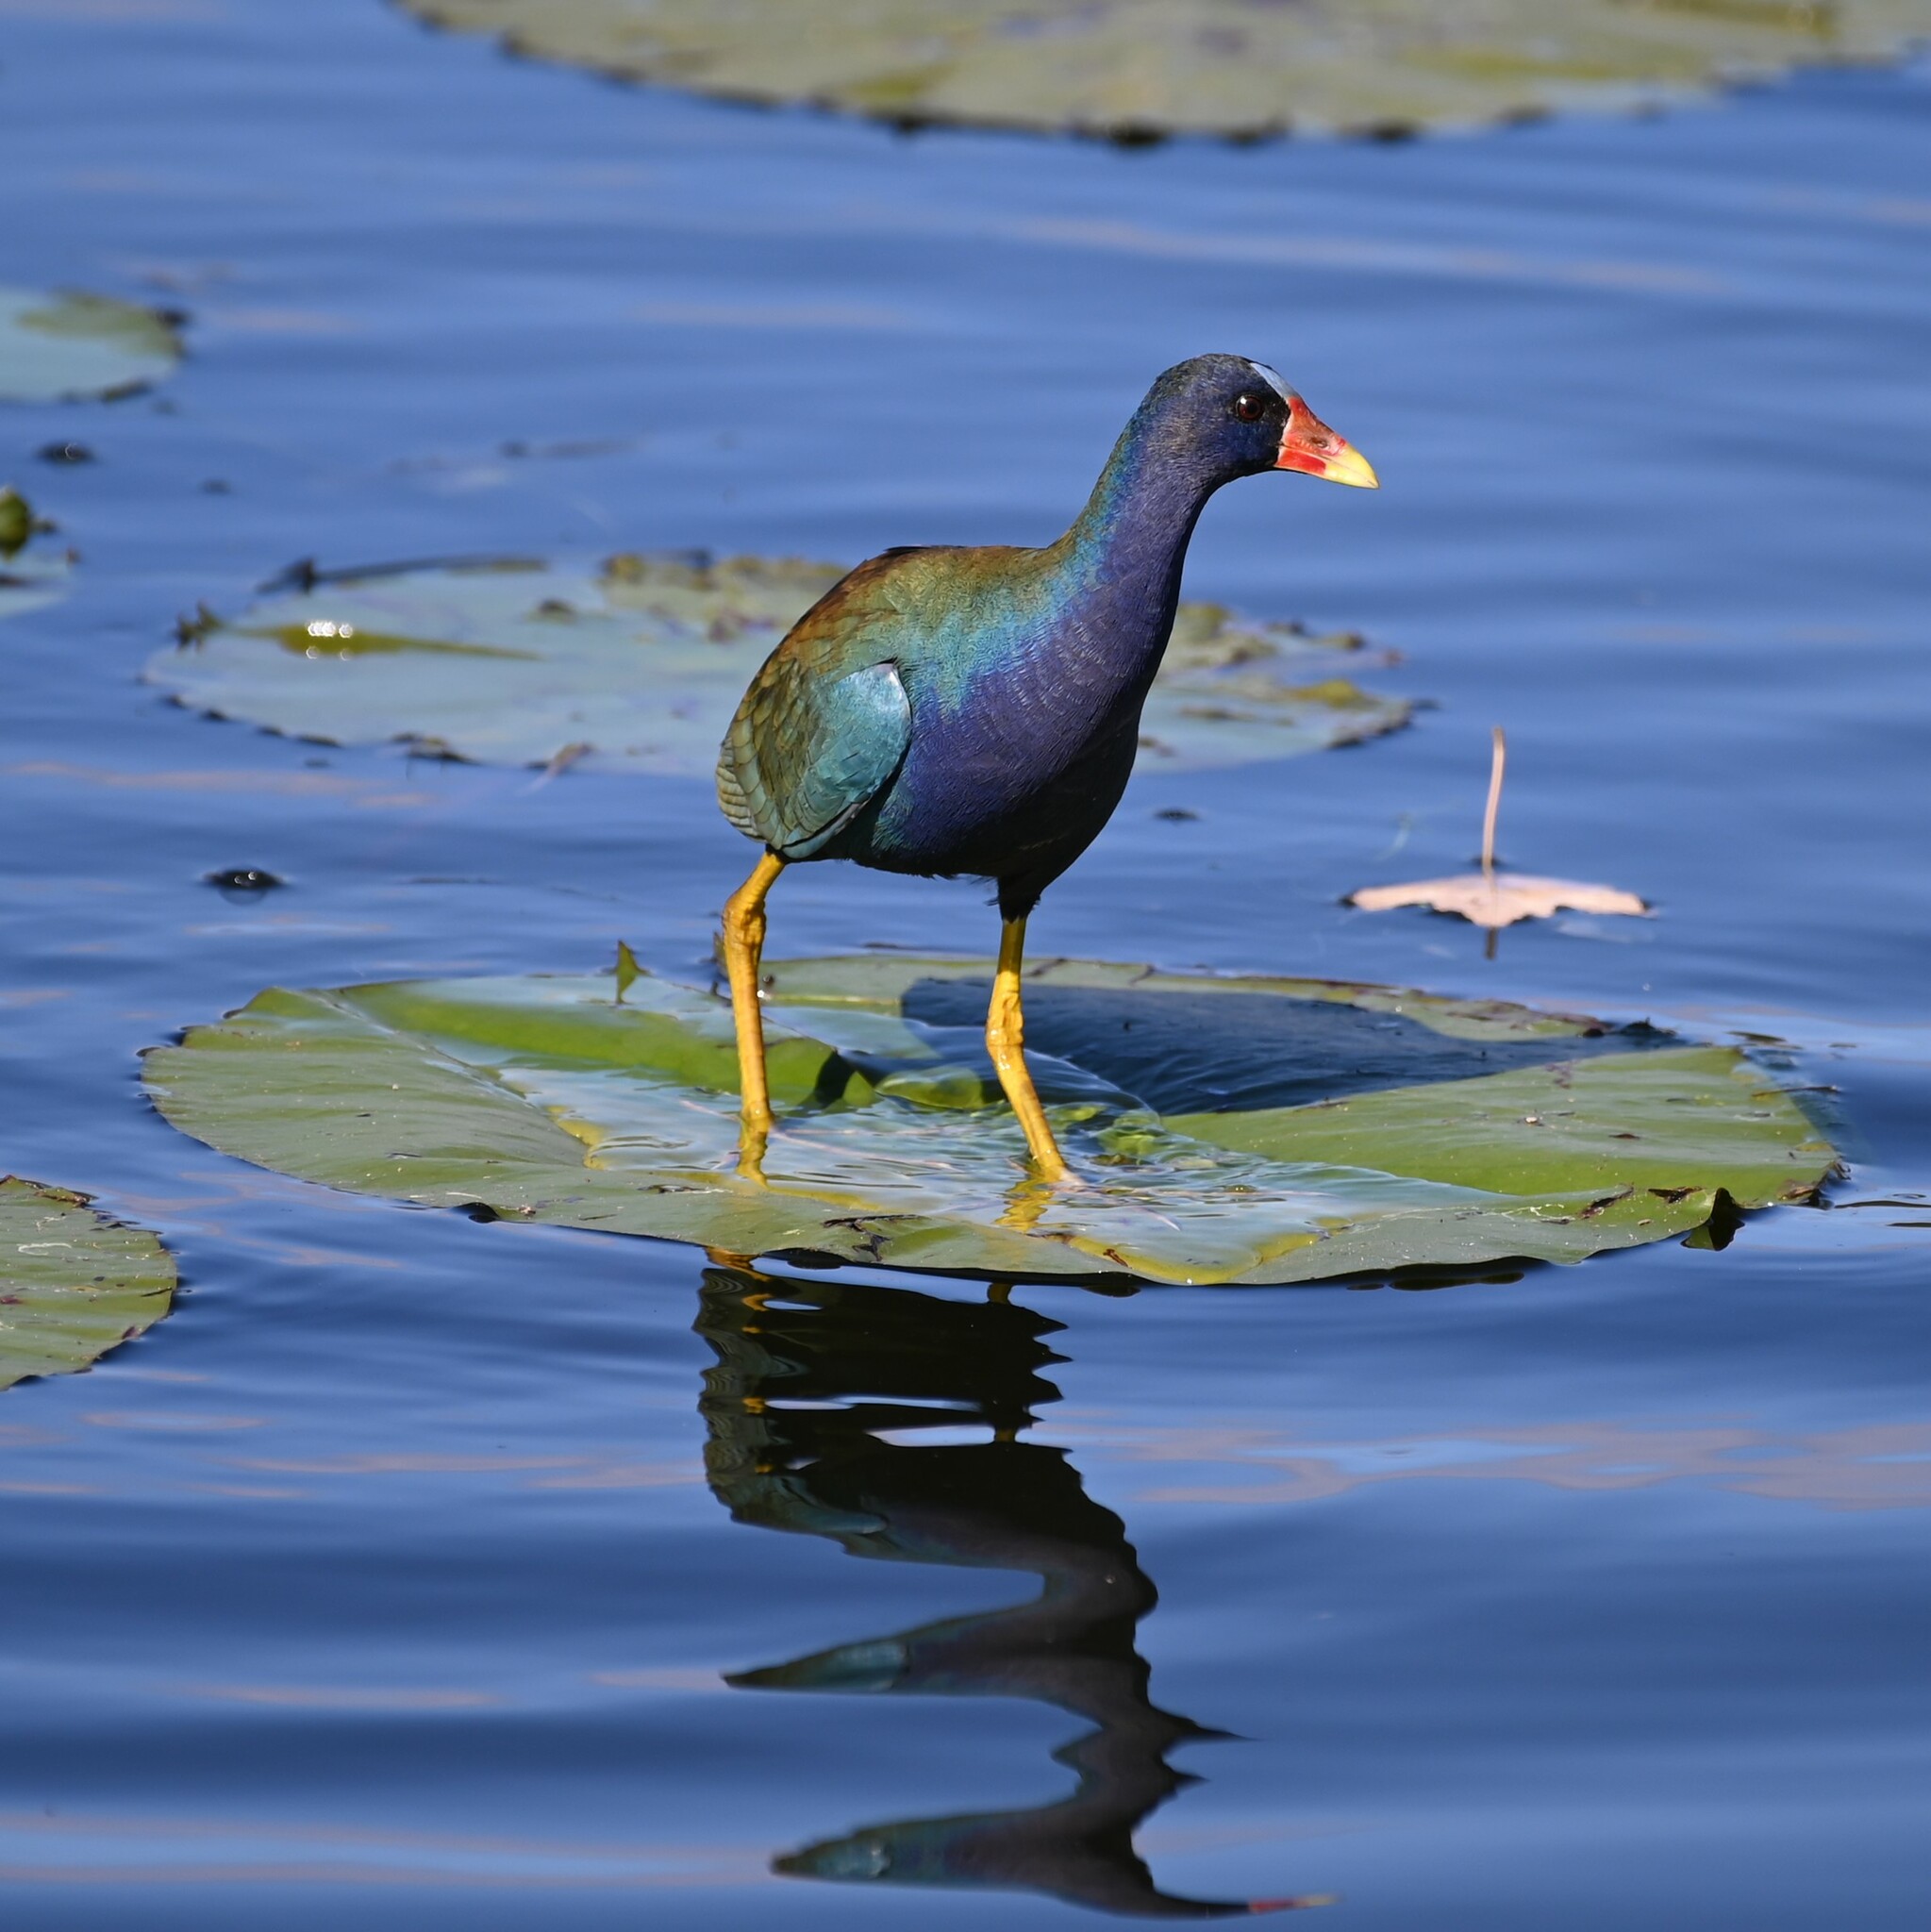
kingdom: Animalia
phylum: Chordata
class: Aves
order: Gruiformes
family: Rallidae
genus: Porphyrio
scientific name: Porphyrio martinica
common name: Purple gallinule
